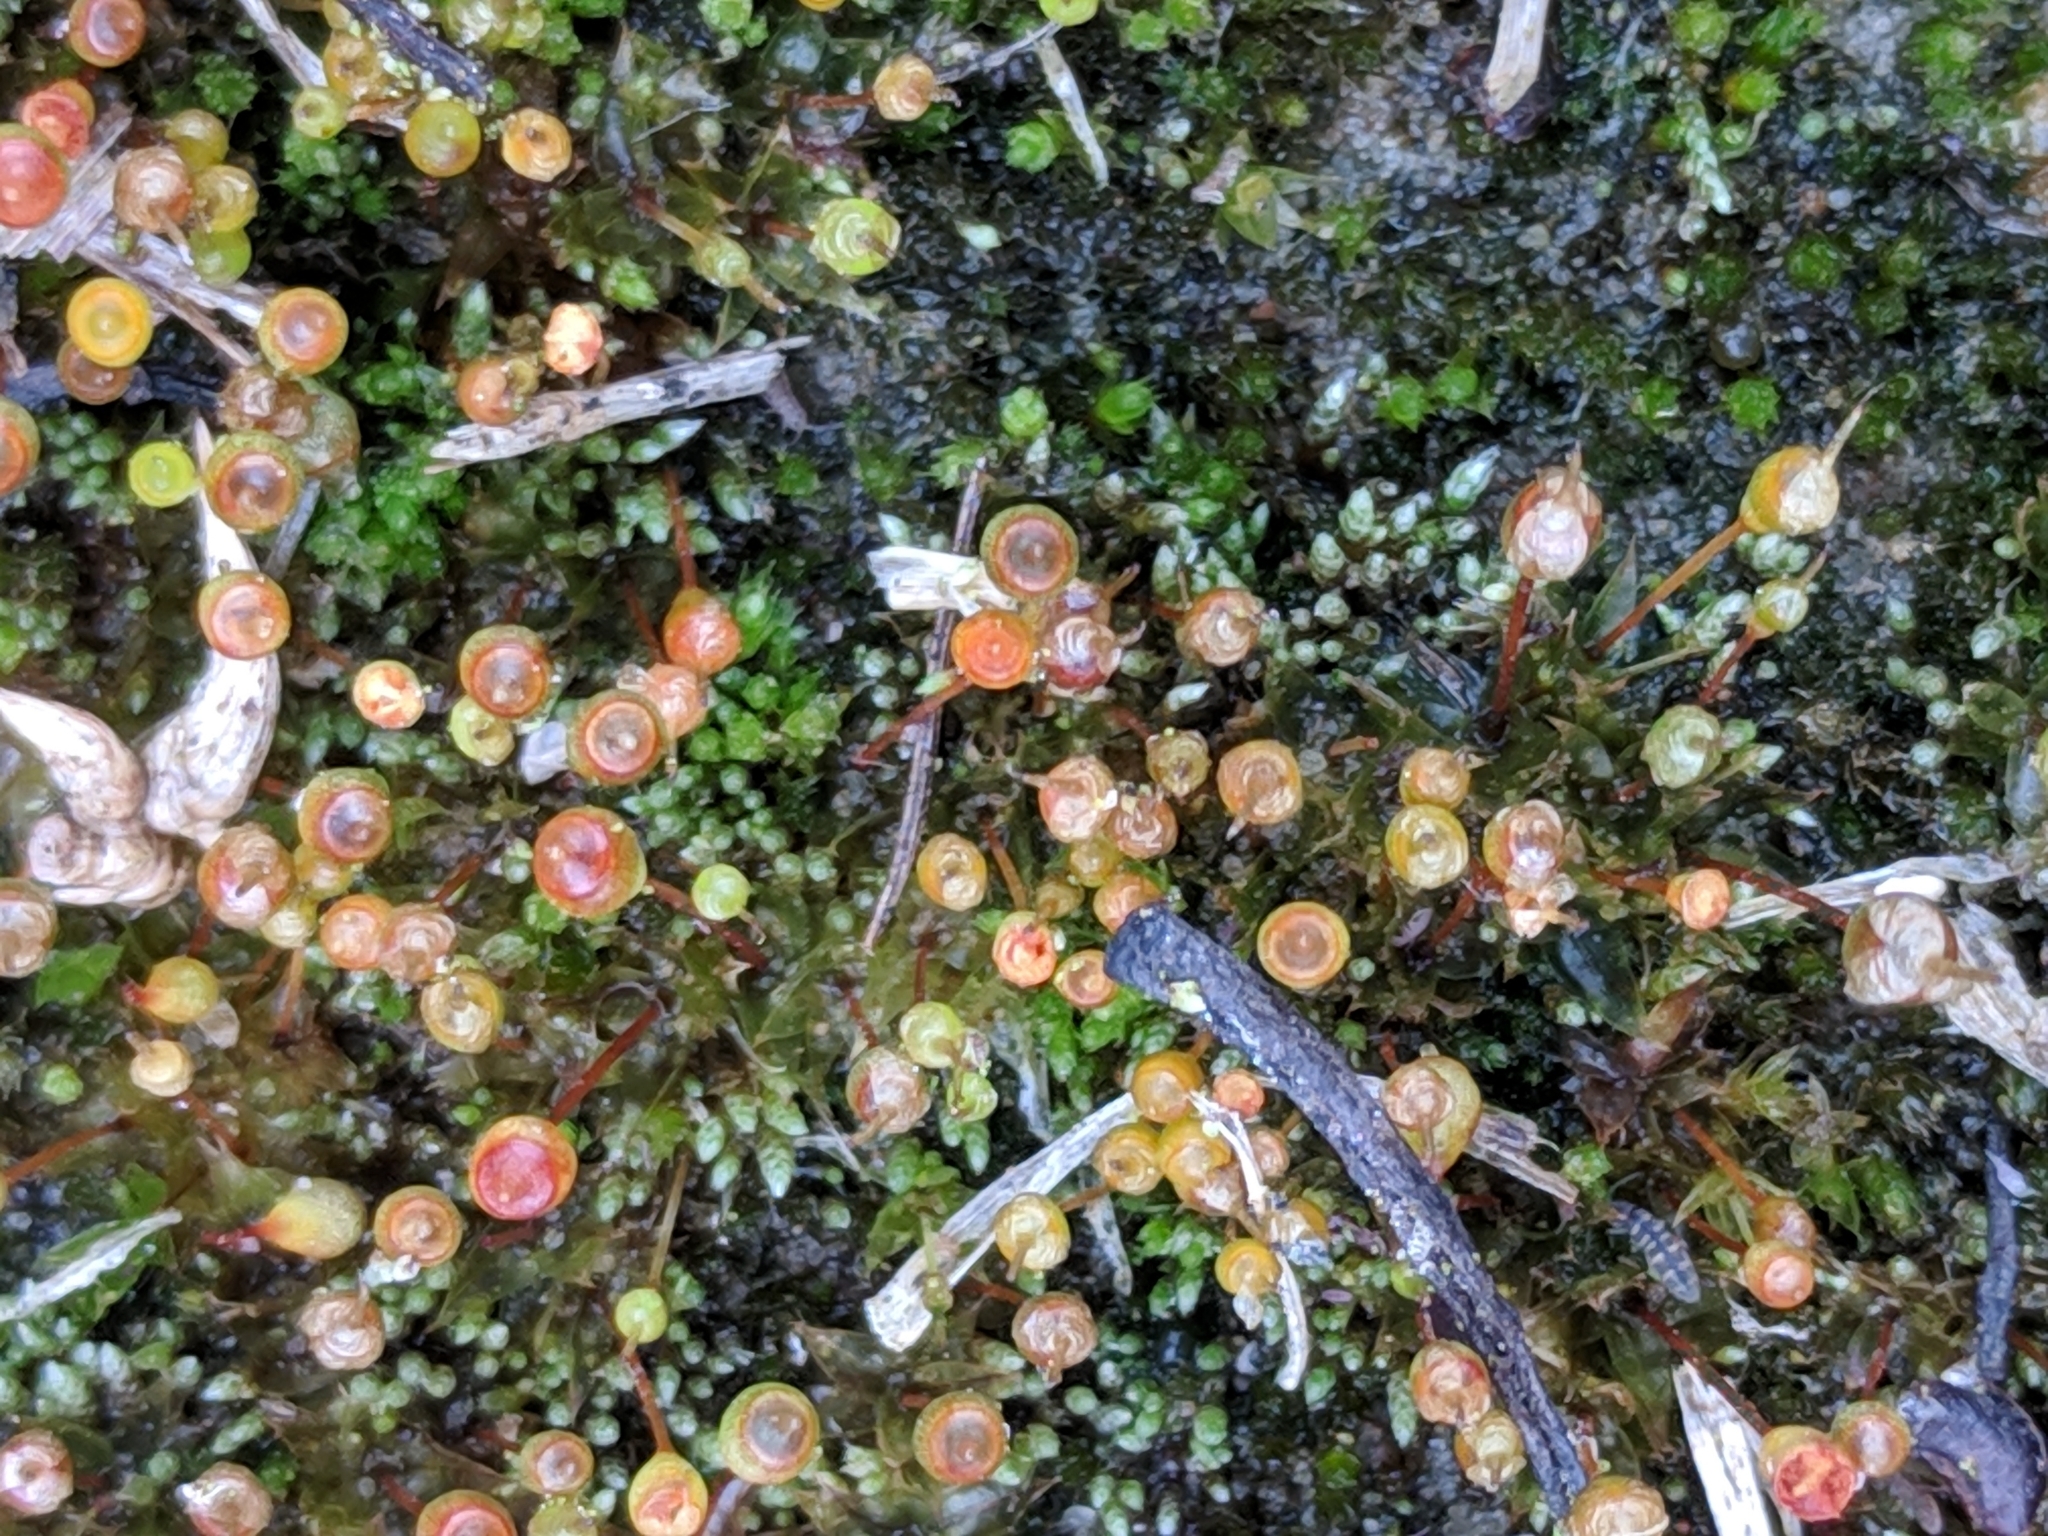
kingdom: Plantae
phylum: Bryophyta
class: Bryopsida
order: Funariales
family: Funariaceae
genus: Physcomitrium
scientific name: Physcomitrium pyriforme
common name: Common bladder-moss
